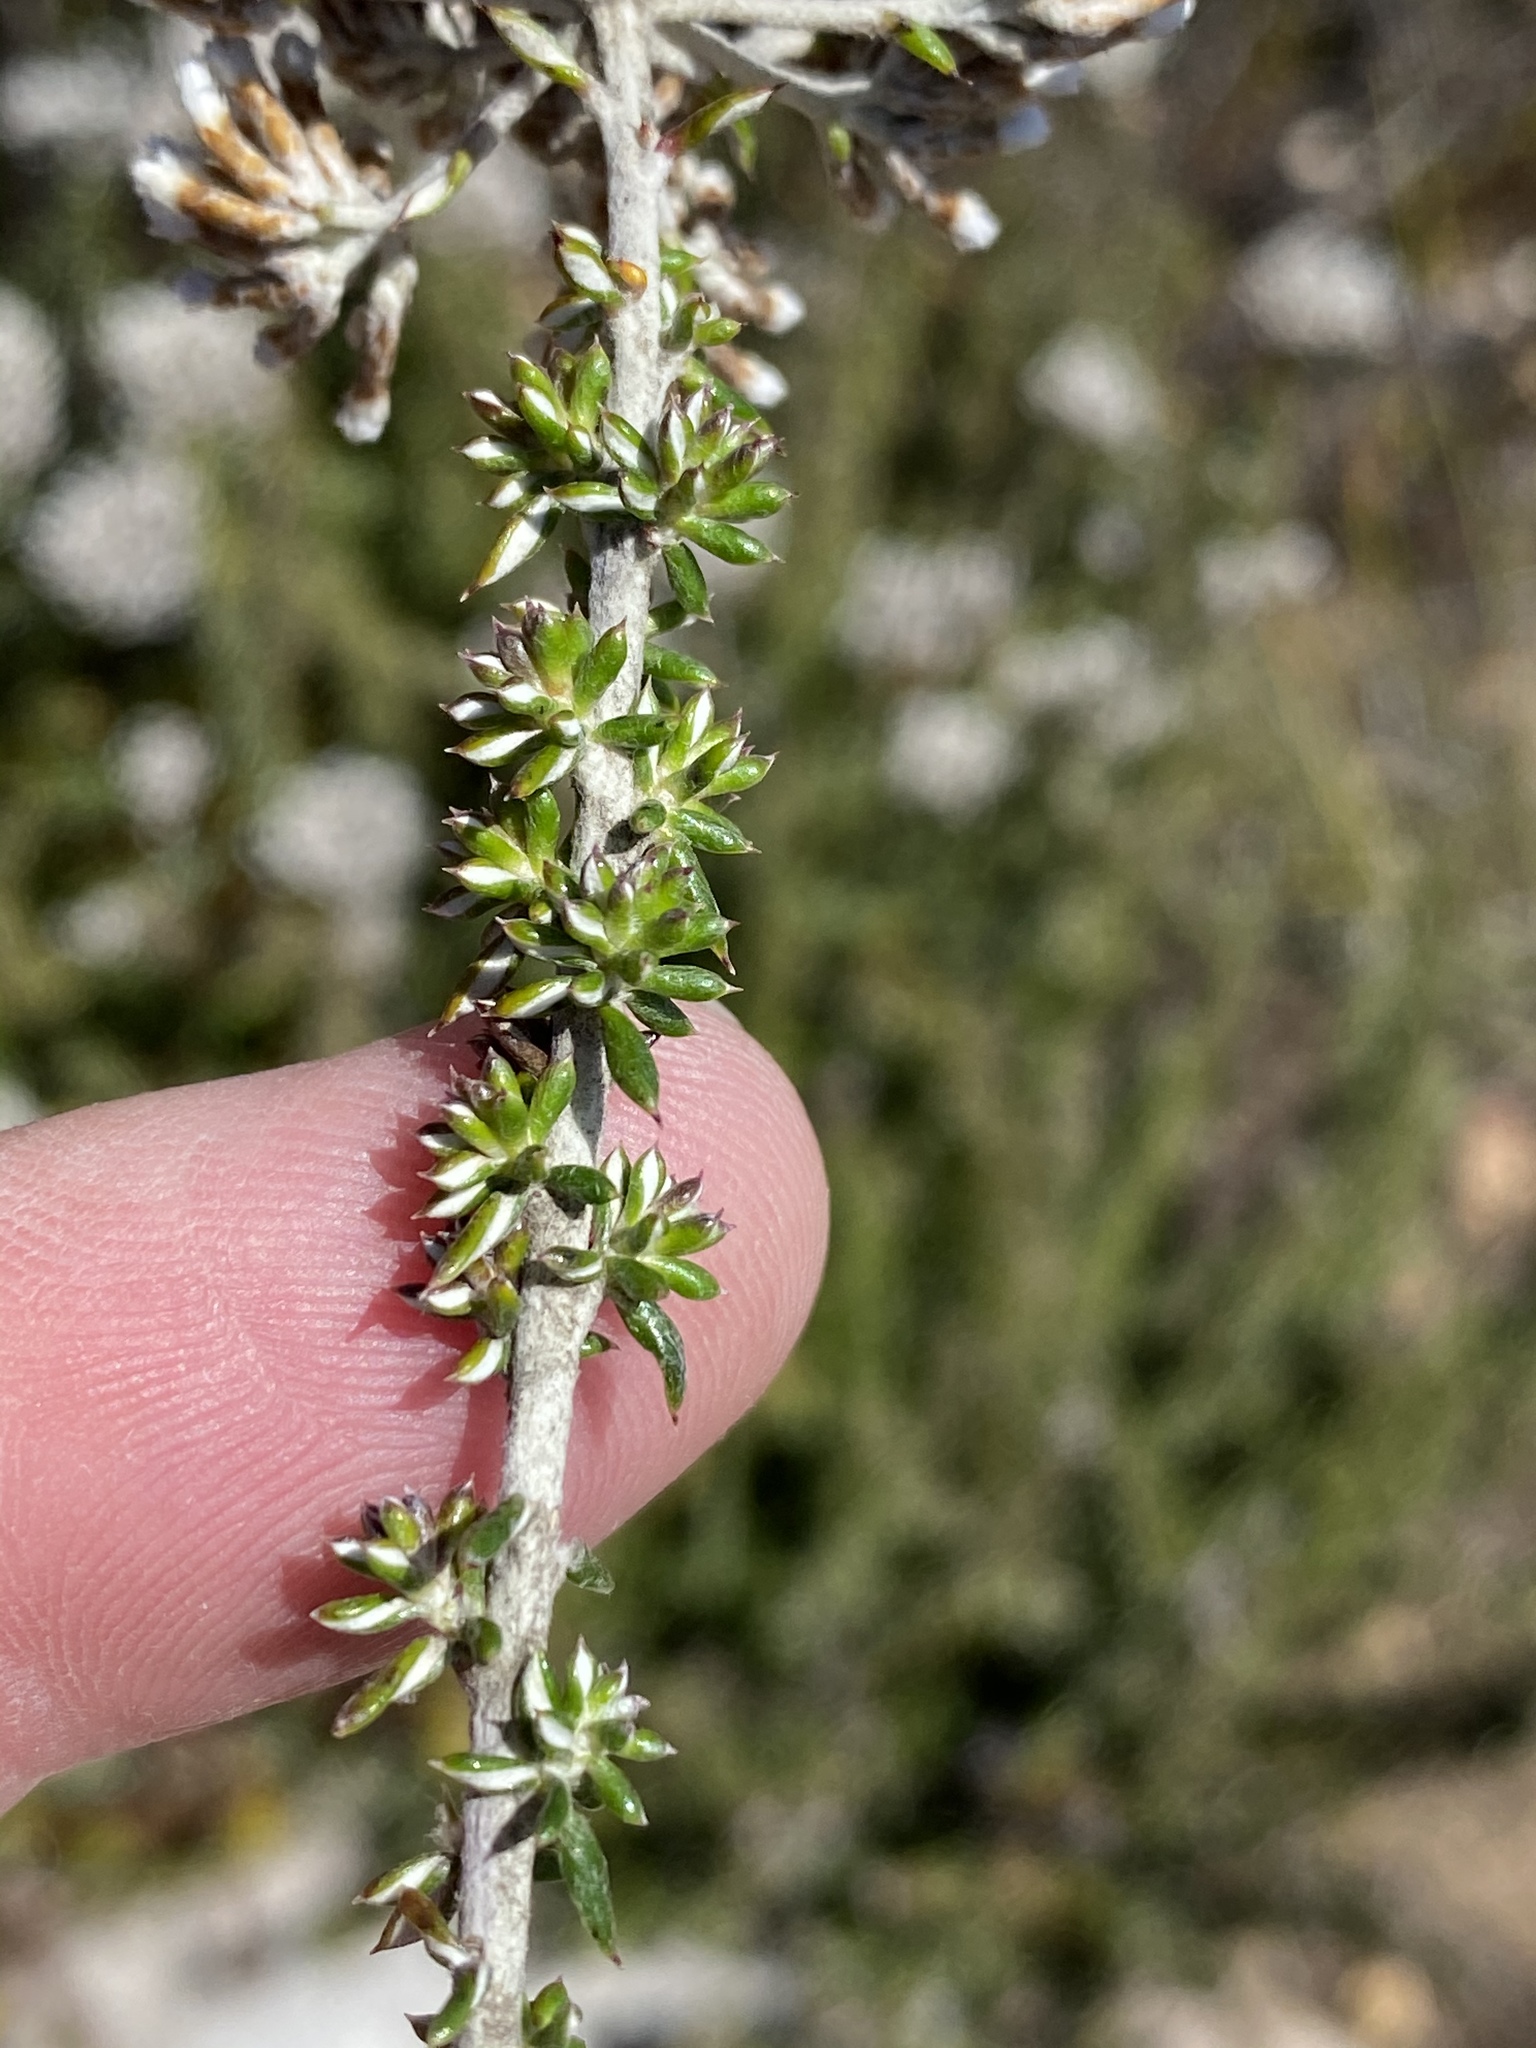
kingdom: Plantae
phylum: Tracheophyta
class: Magnoliopsida
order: Asterales
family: Asteraceae
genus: Metalasia
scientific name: Metalasia densa
